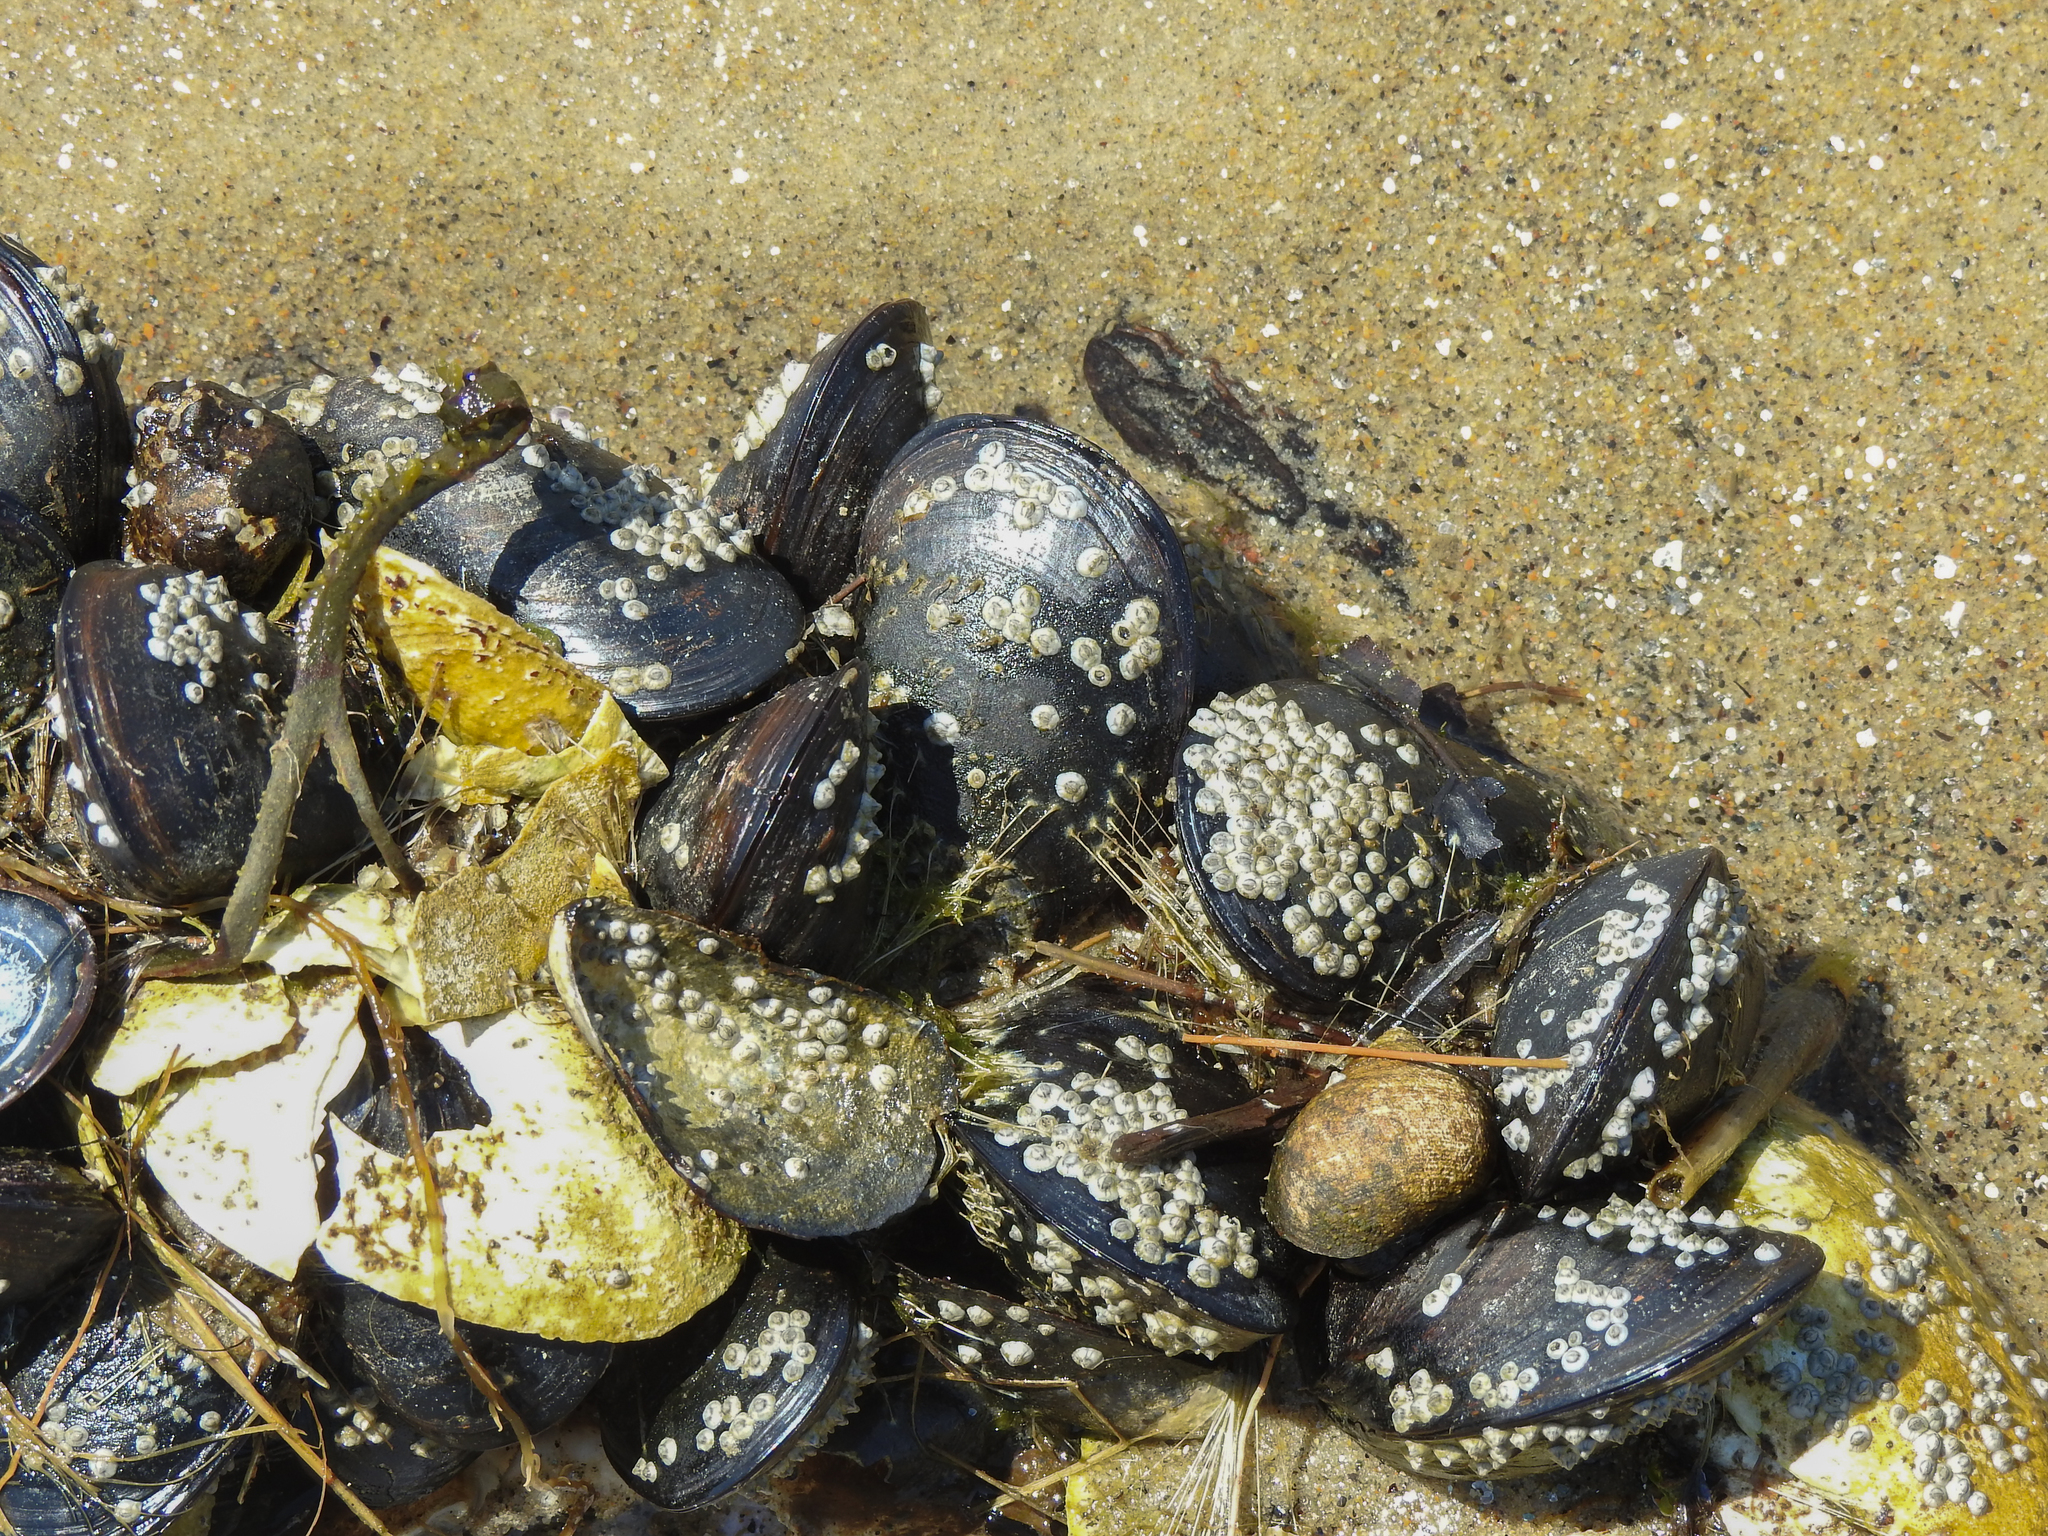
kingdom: Animalia
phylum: Mollusca
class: Bivalvia
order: Mytilida
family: Mytilidae
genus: Mytilus
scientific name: Mytilus edulis
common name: Blue mussel
